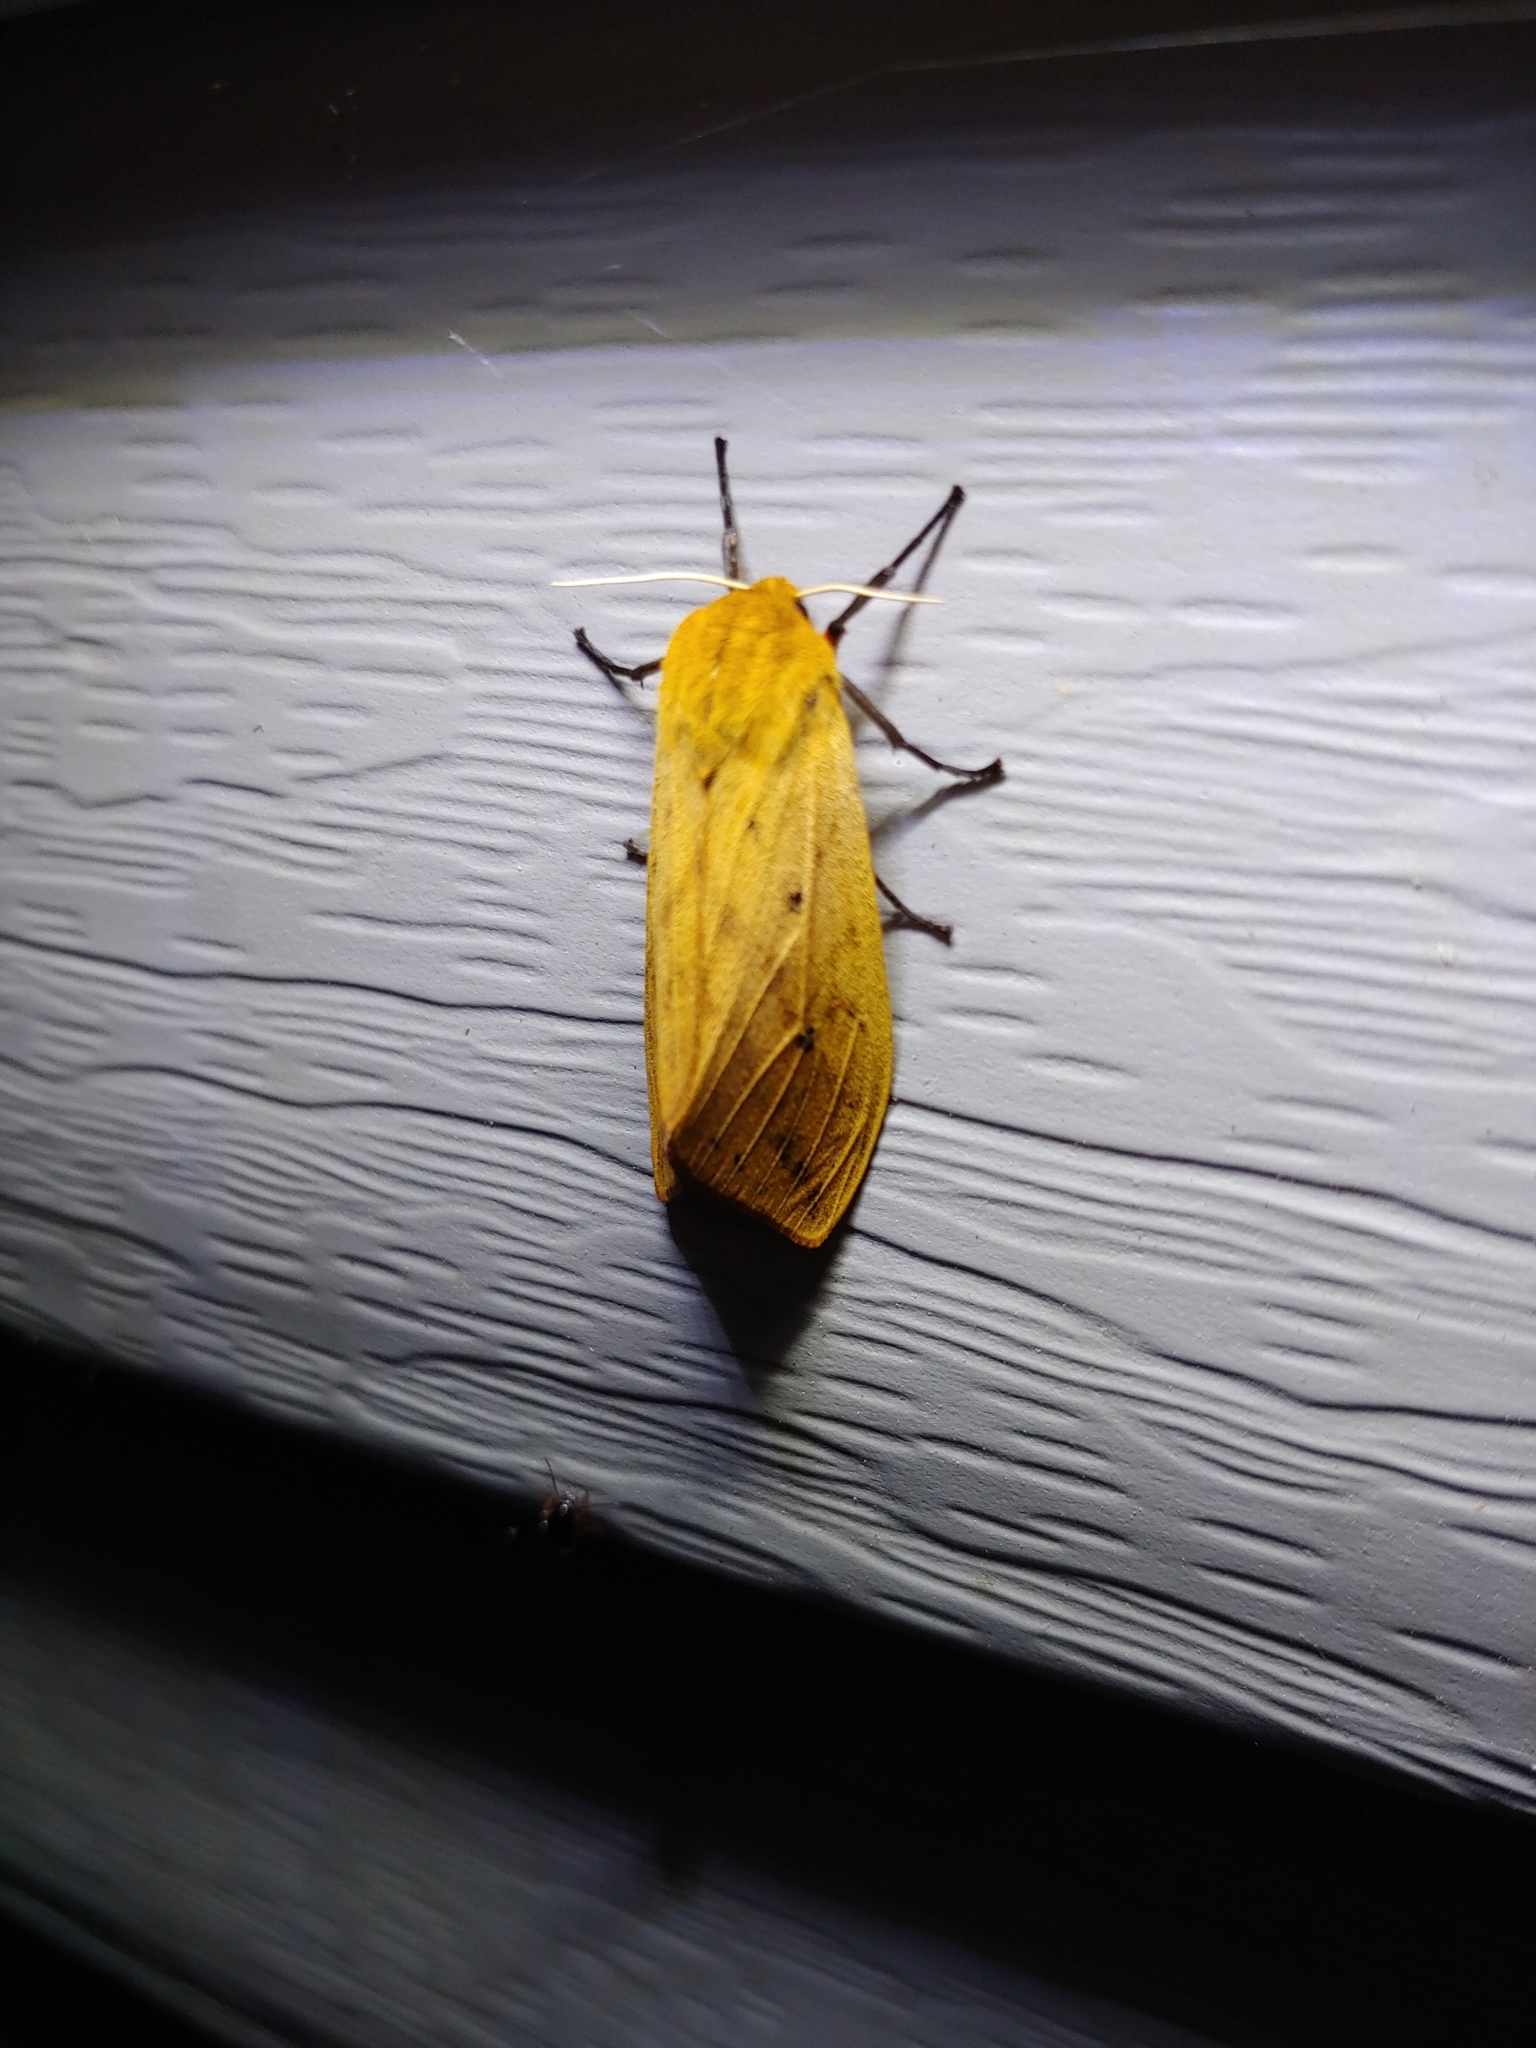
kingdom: Animalia
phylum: Arthropoda
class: Insecta
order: Lepidoptera
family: Erebidae
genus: Pyrrharctia
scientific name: Pyrrharctia isabella
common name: Isabella tiger moth
